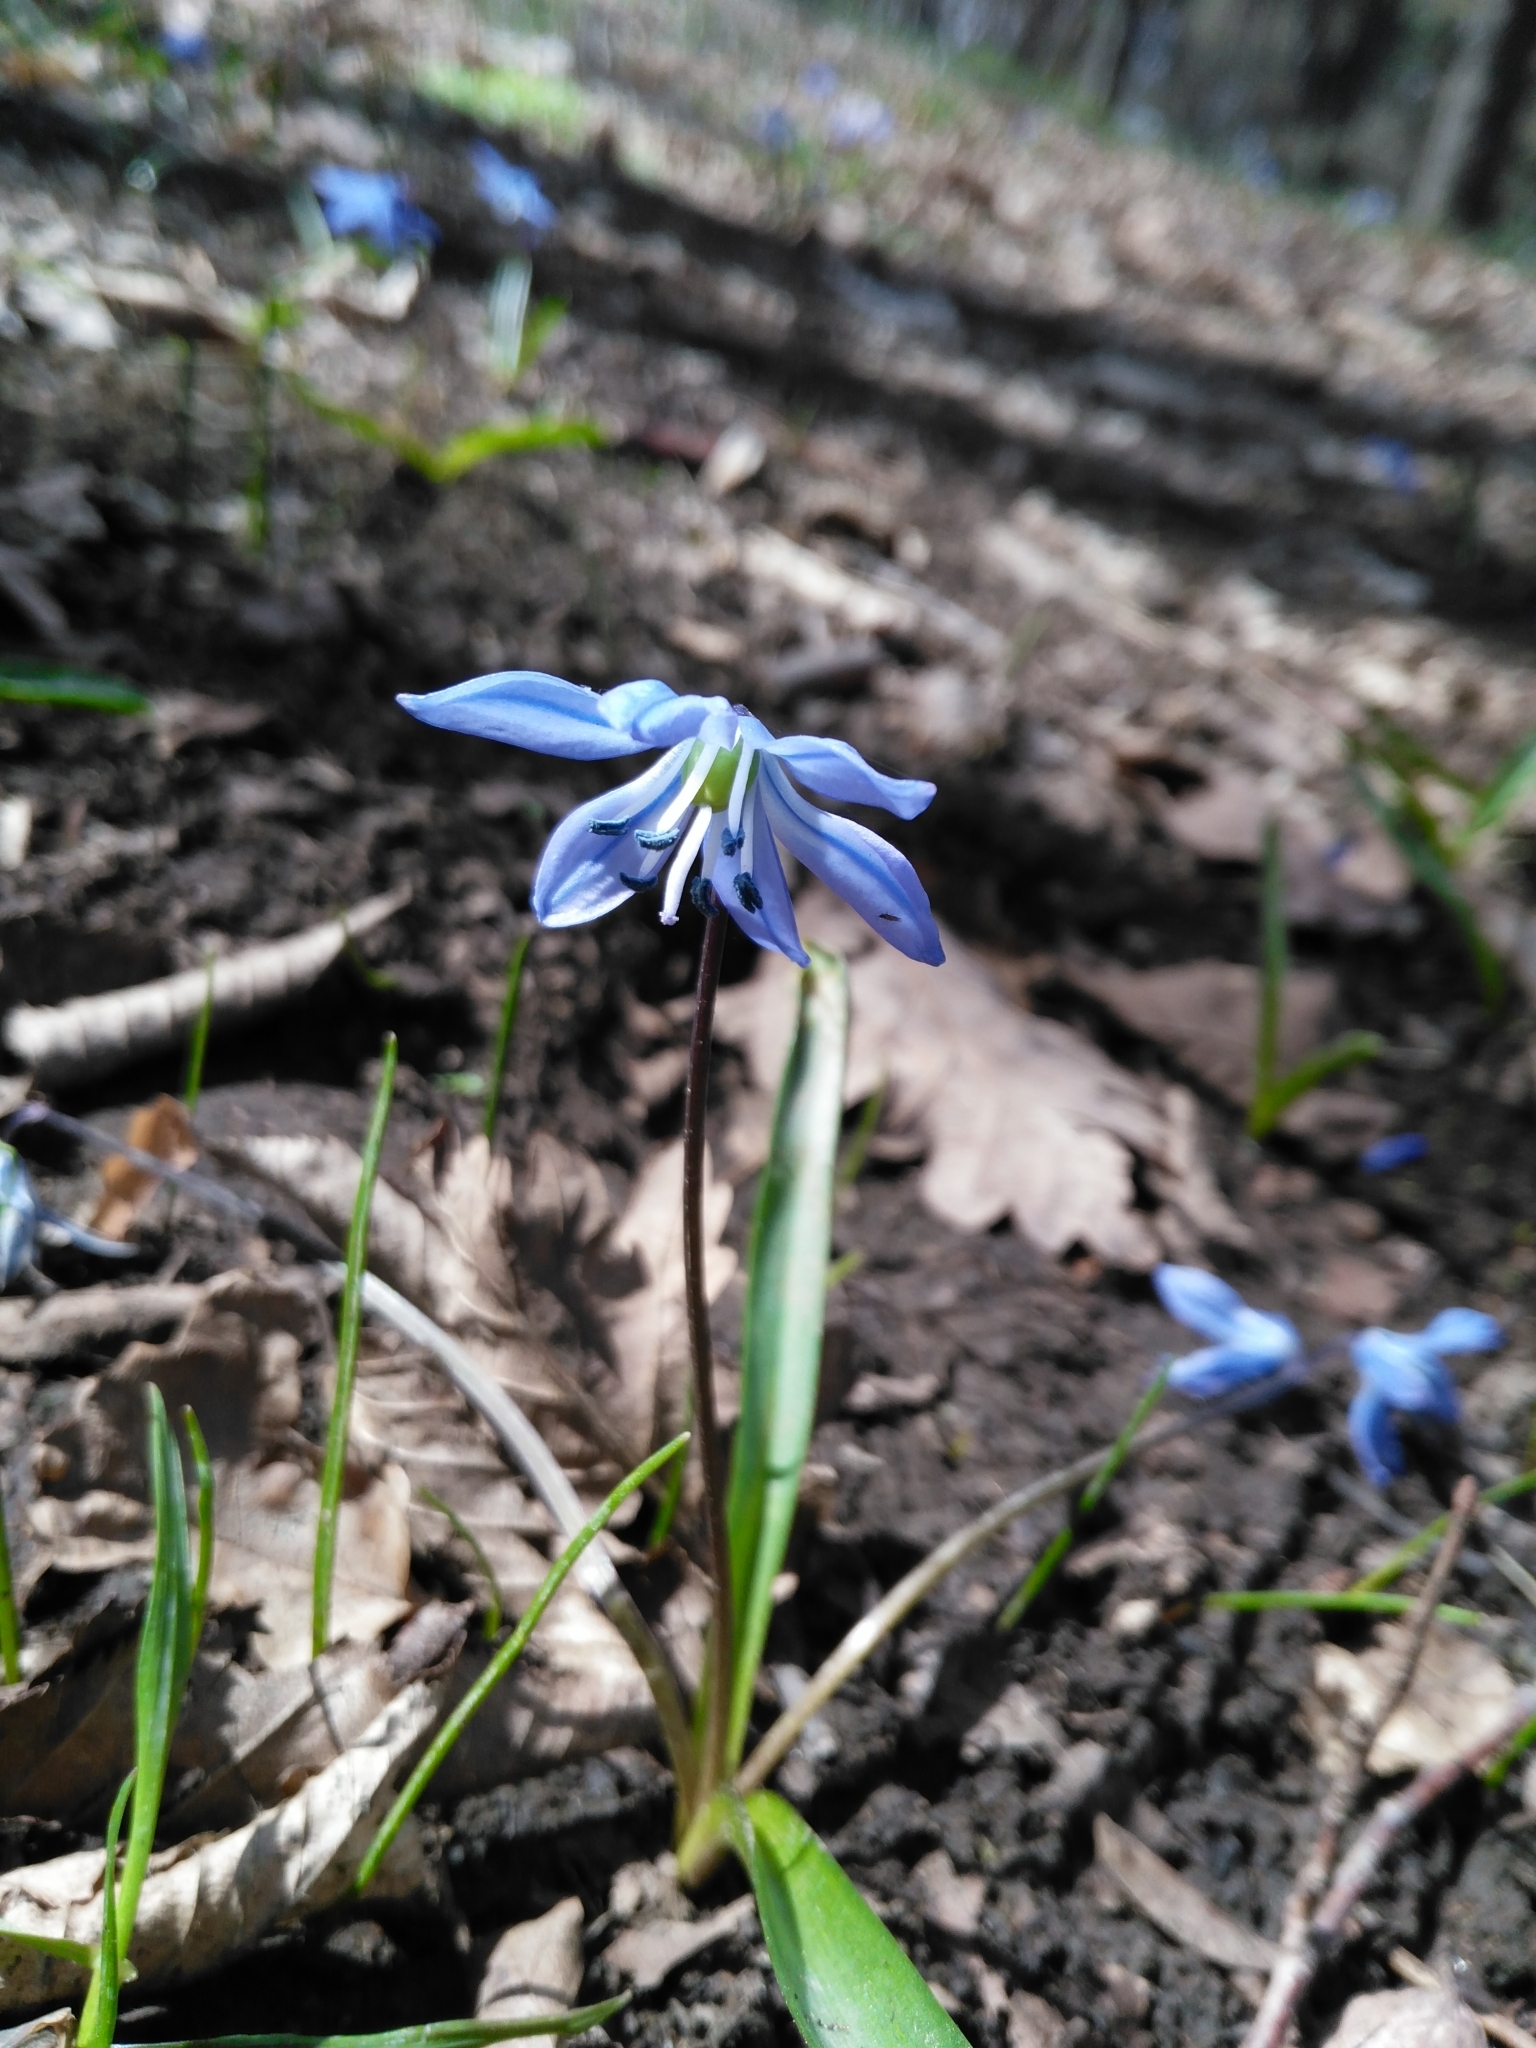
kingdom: Plantae
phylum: Tracheophyta
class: Liliopsida
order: Asparagales
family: Asparagaceae
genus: Scilla
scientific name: Scilla siberica
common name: Siberian squill
